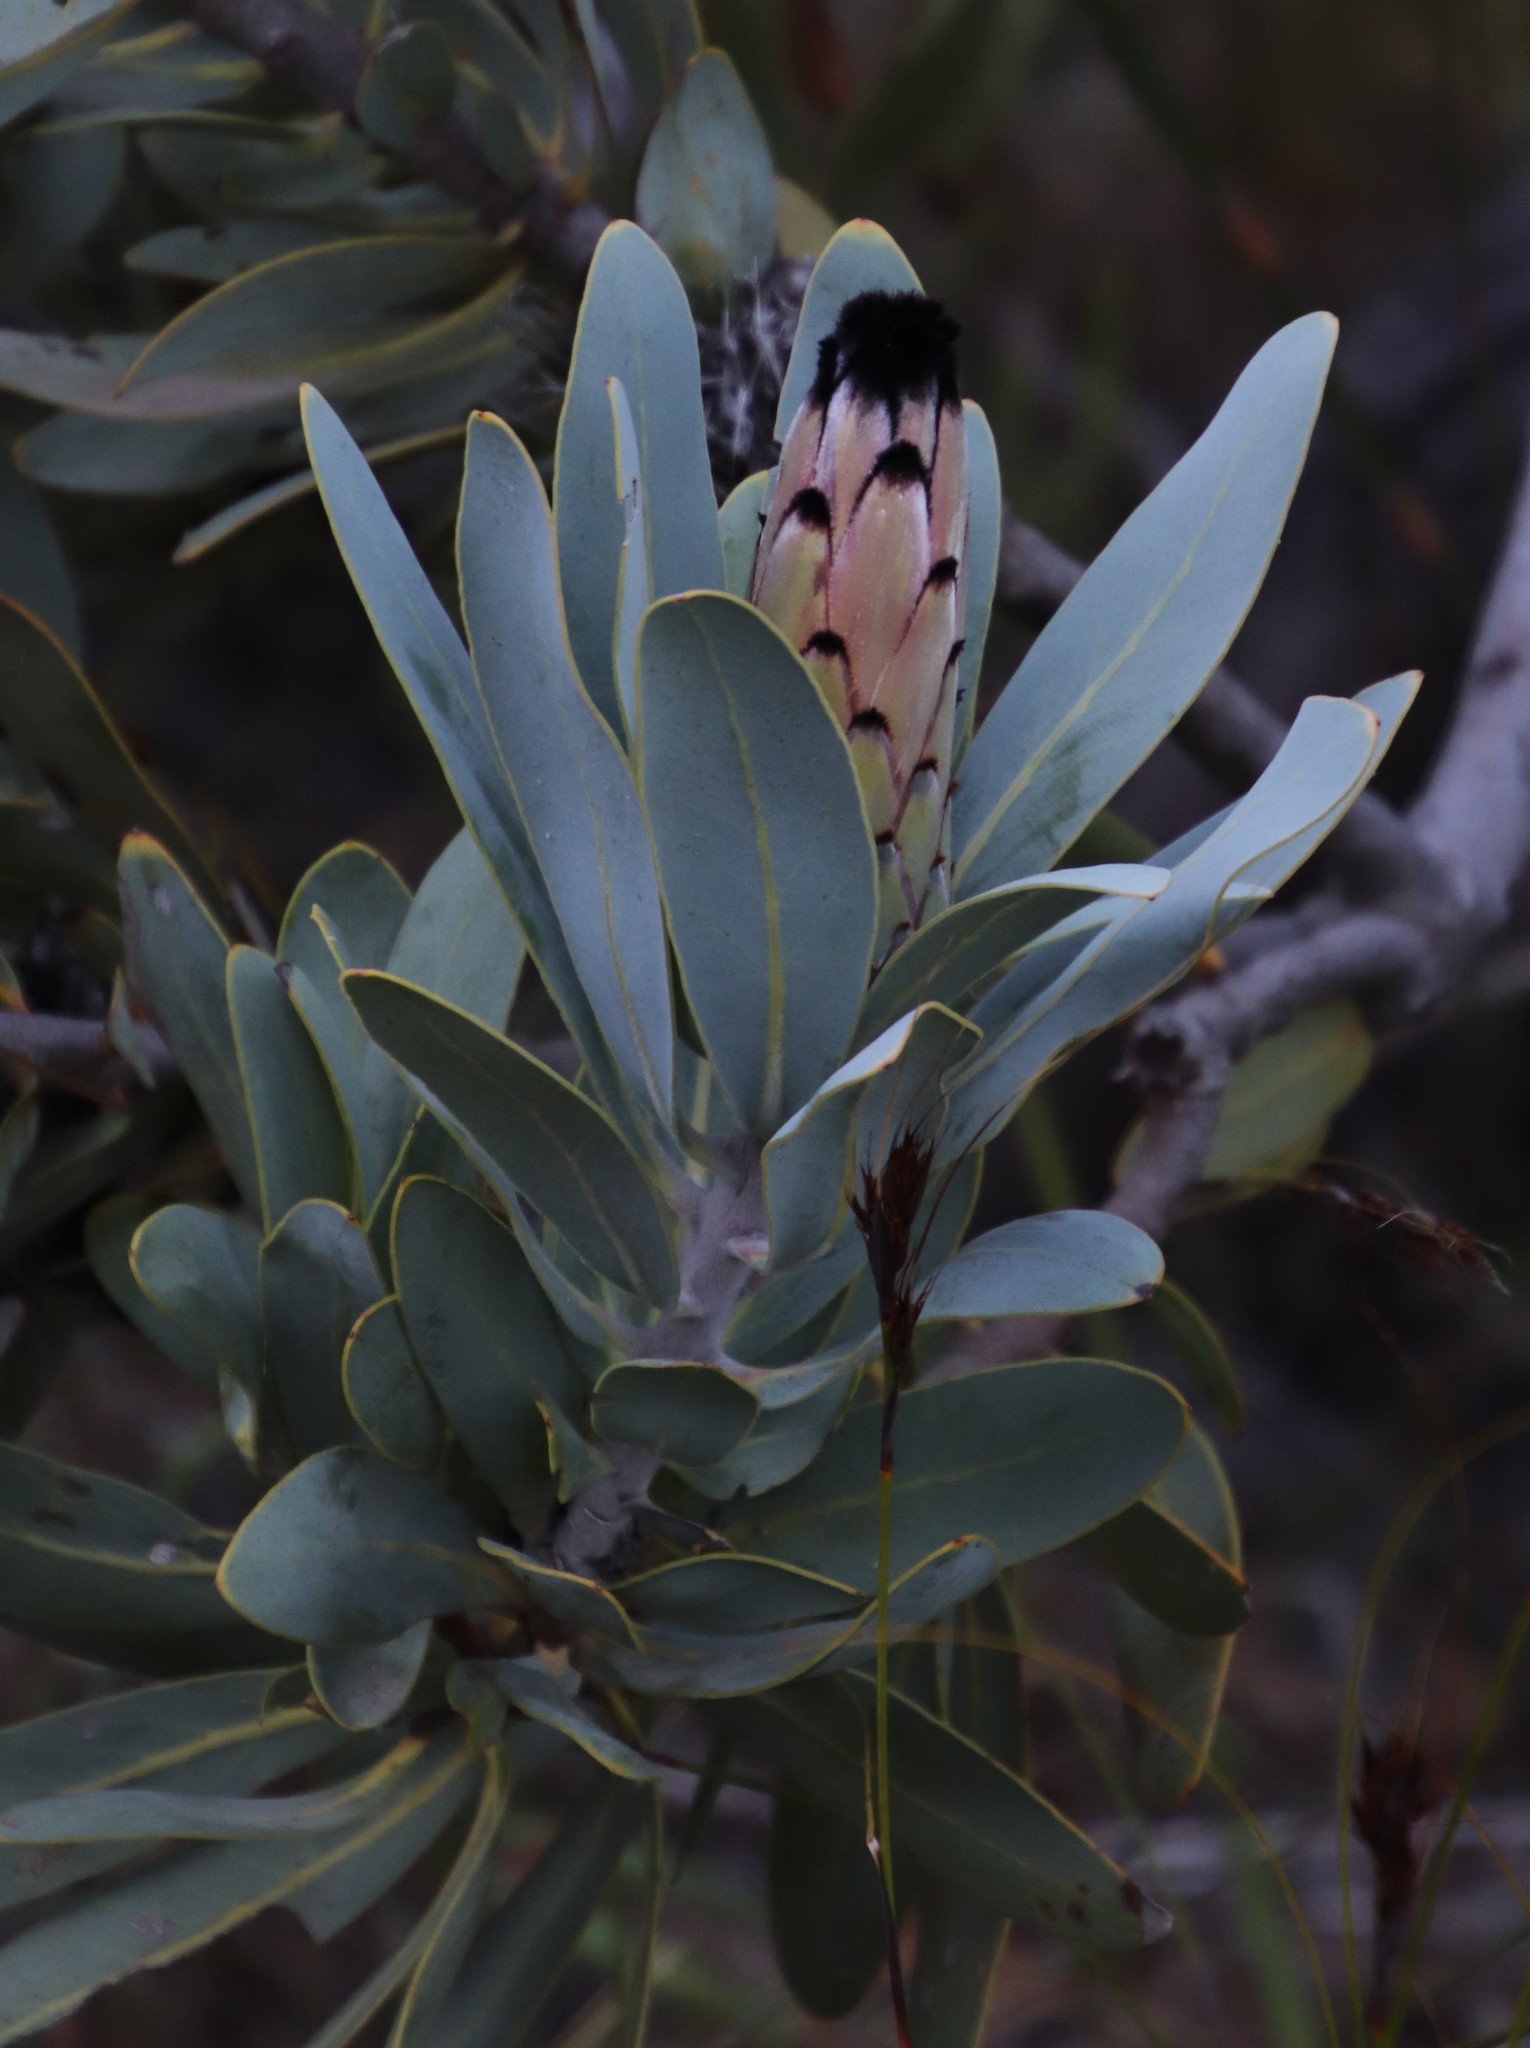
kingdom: Plantae
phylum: Tracheophyta
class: Magnoliopsida
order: Proteales
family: Proteaceae
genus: Protea
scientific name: Protea laurifolia
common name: Grey-leaf sugarbsh
